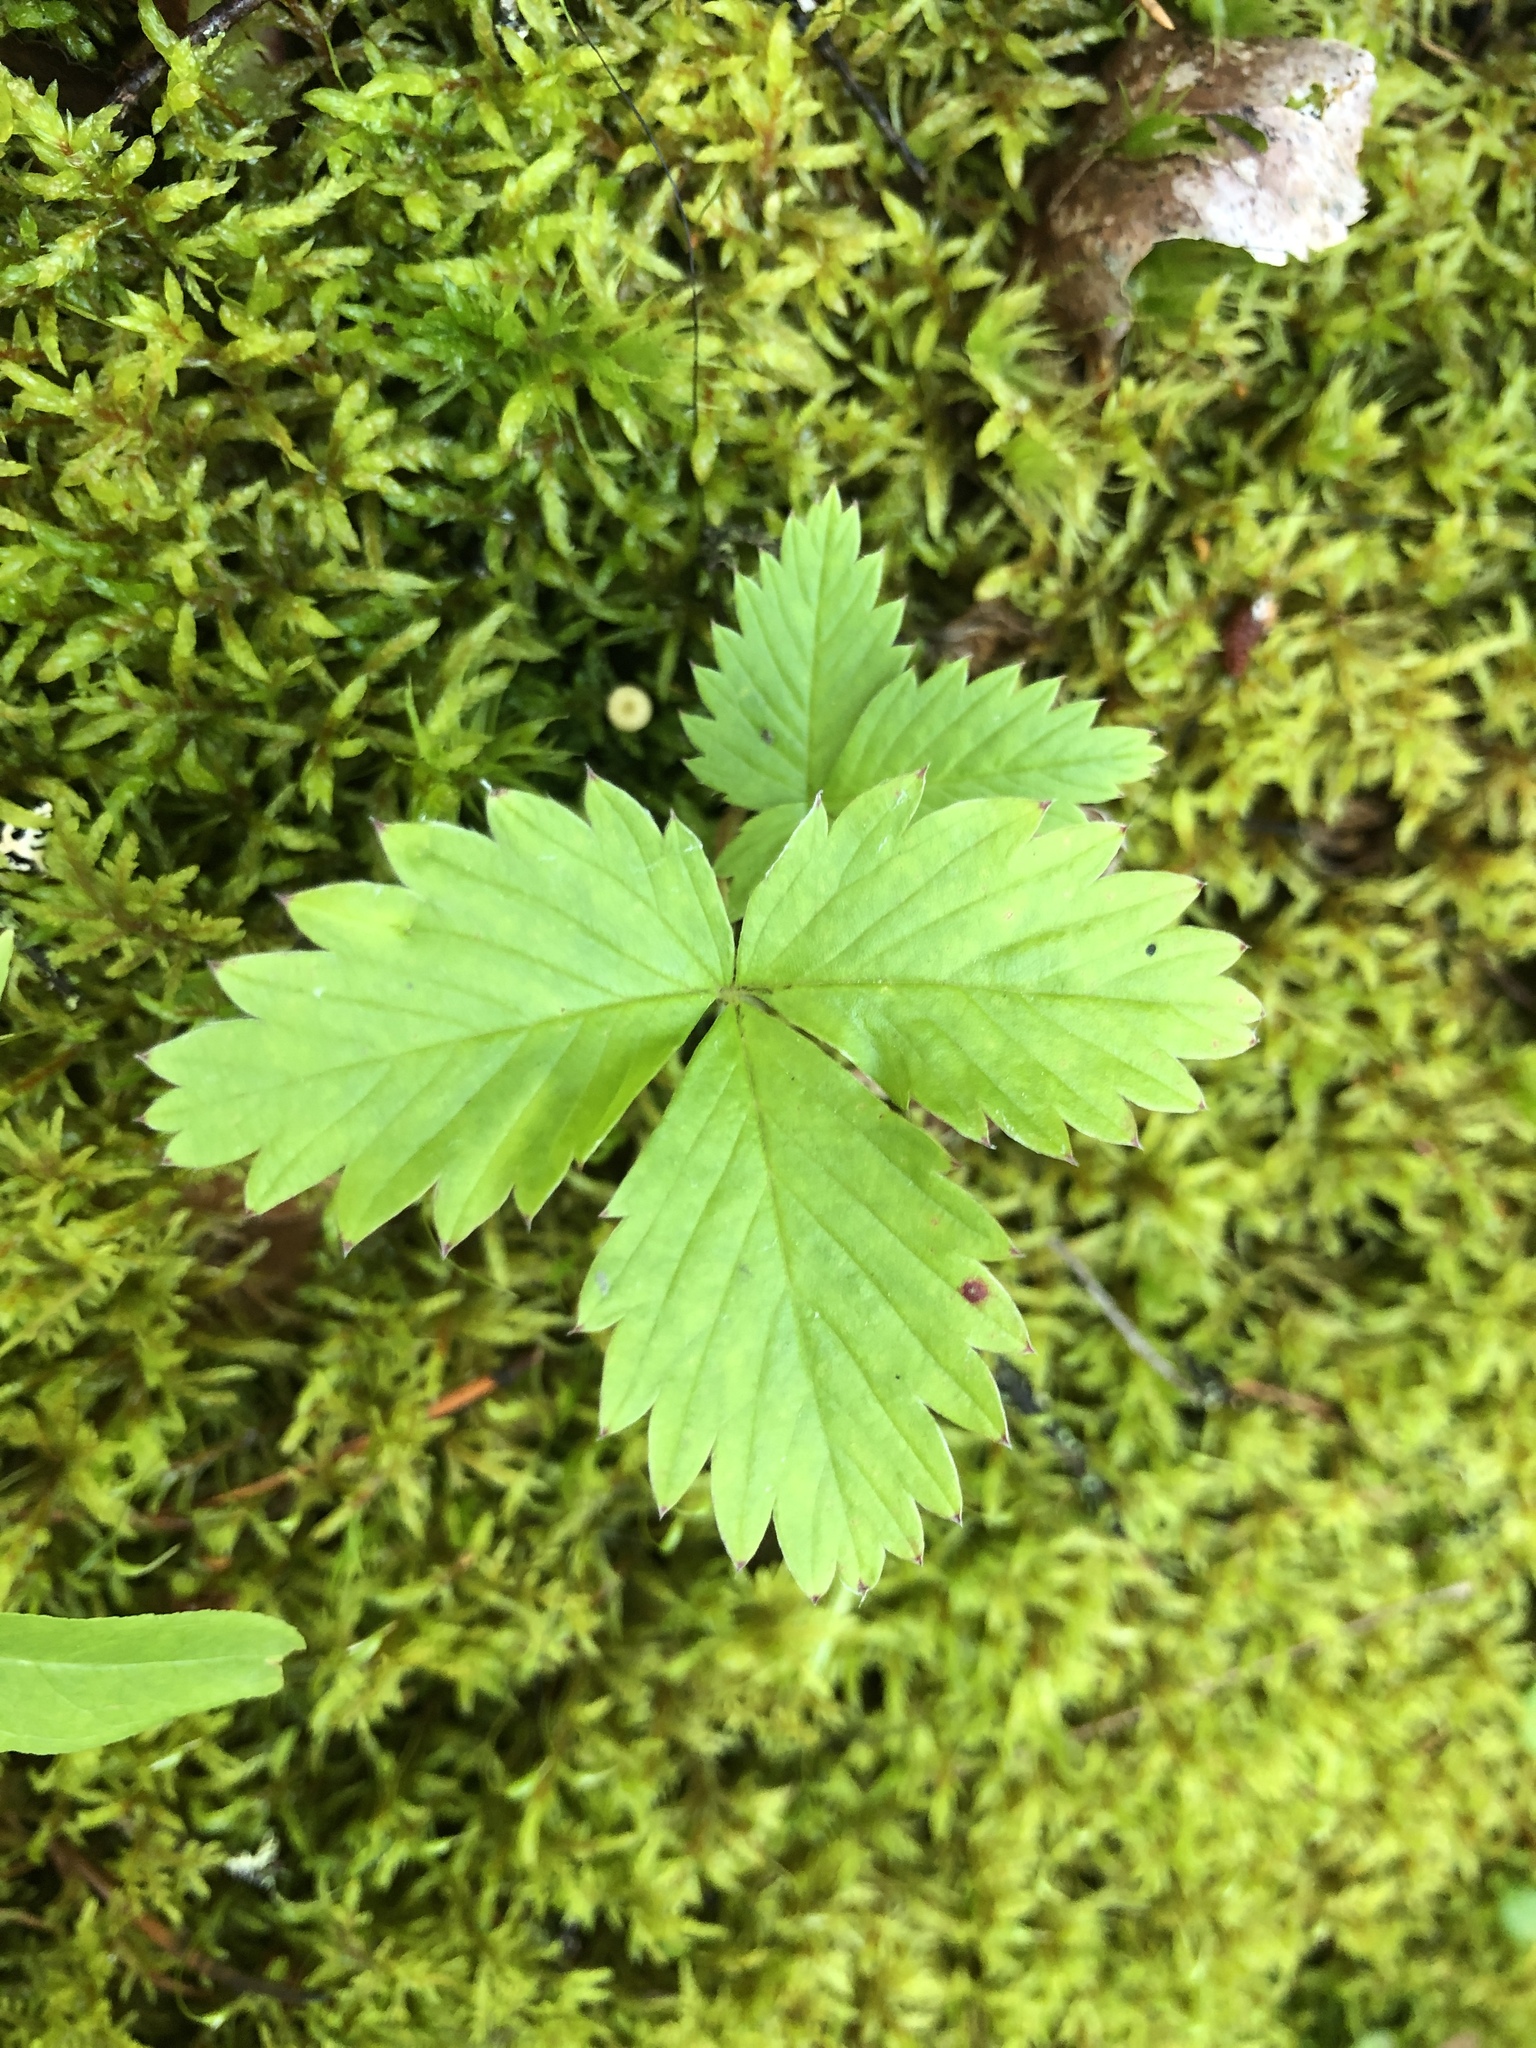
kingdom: Plantae
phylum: Tracheophyta
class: Magnoliopsida
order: Rosales
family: Rosaceae
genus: Fragaria
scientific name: Fragaria vesca
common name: Wild strawberry
